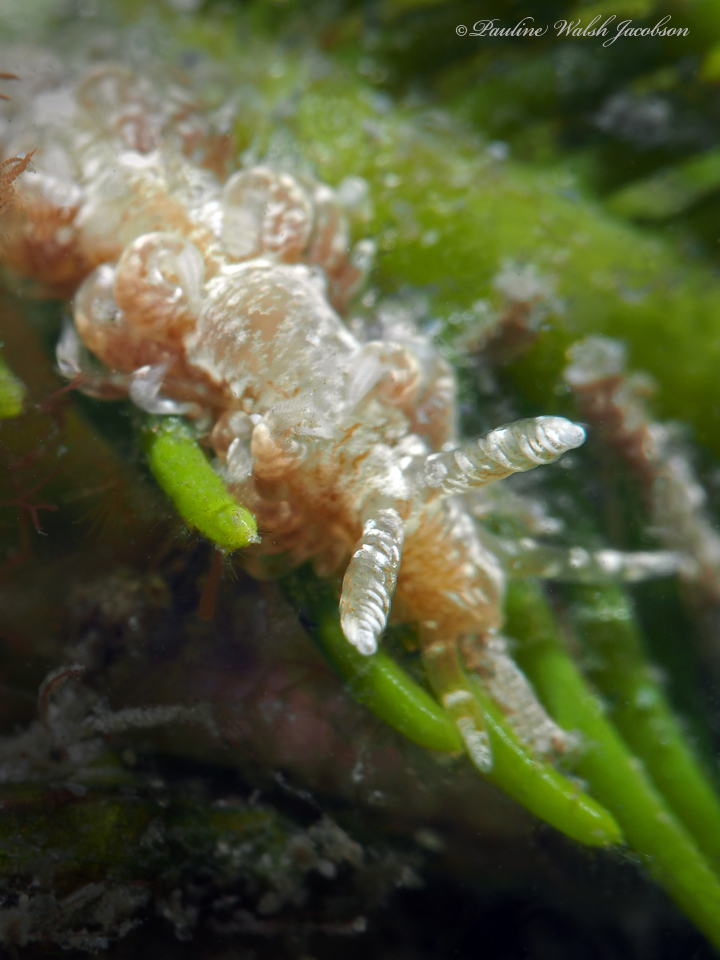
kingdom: Animalia
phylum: Mollusca
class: Gastropoda
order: Nudibranchia
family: Aeolidiidae
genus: Spurilla
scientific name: Spurilla sargassicola
